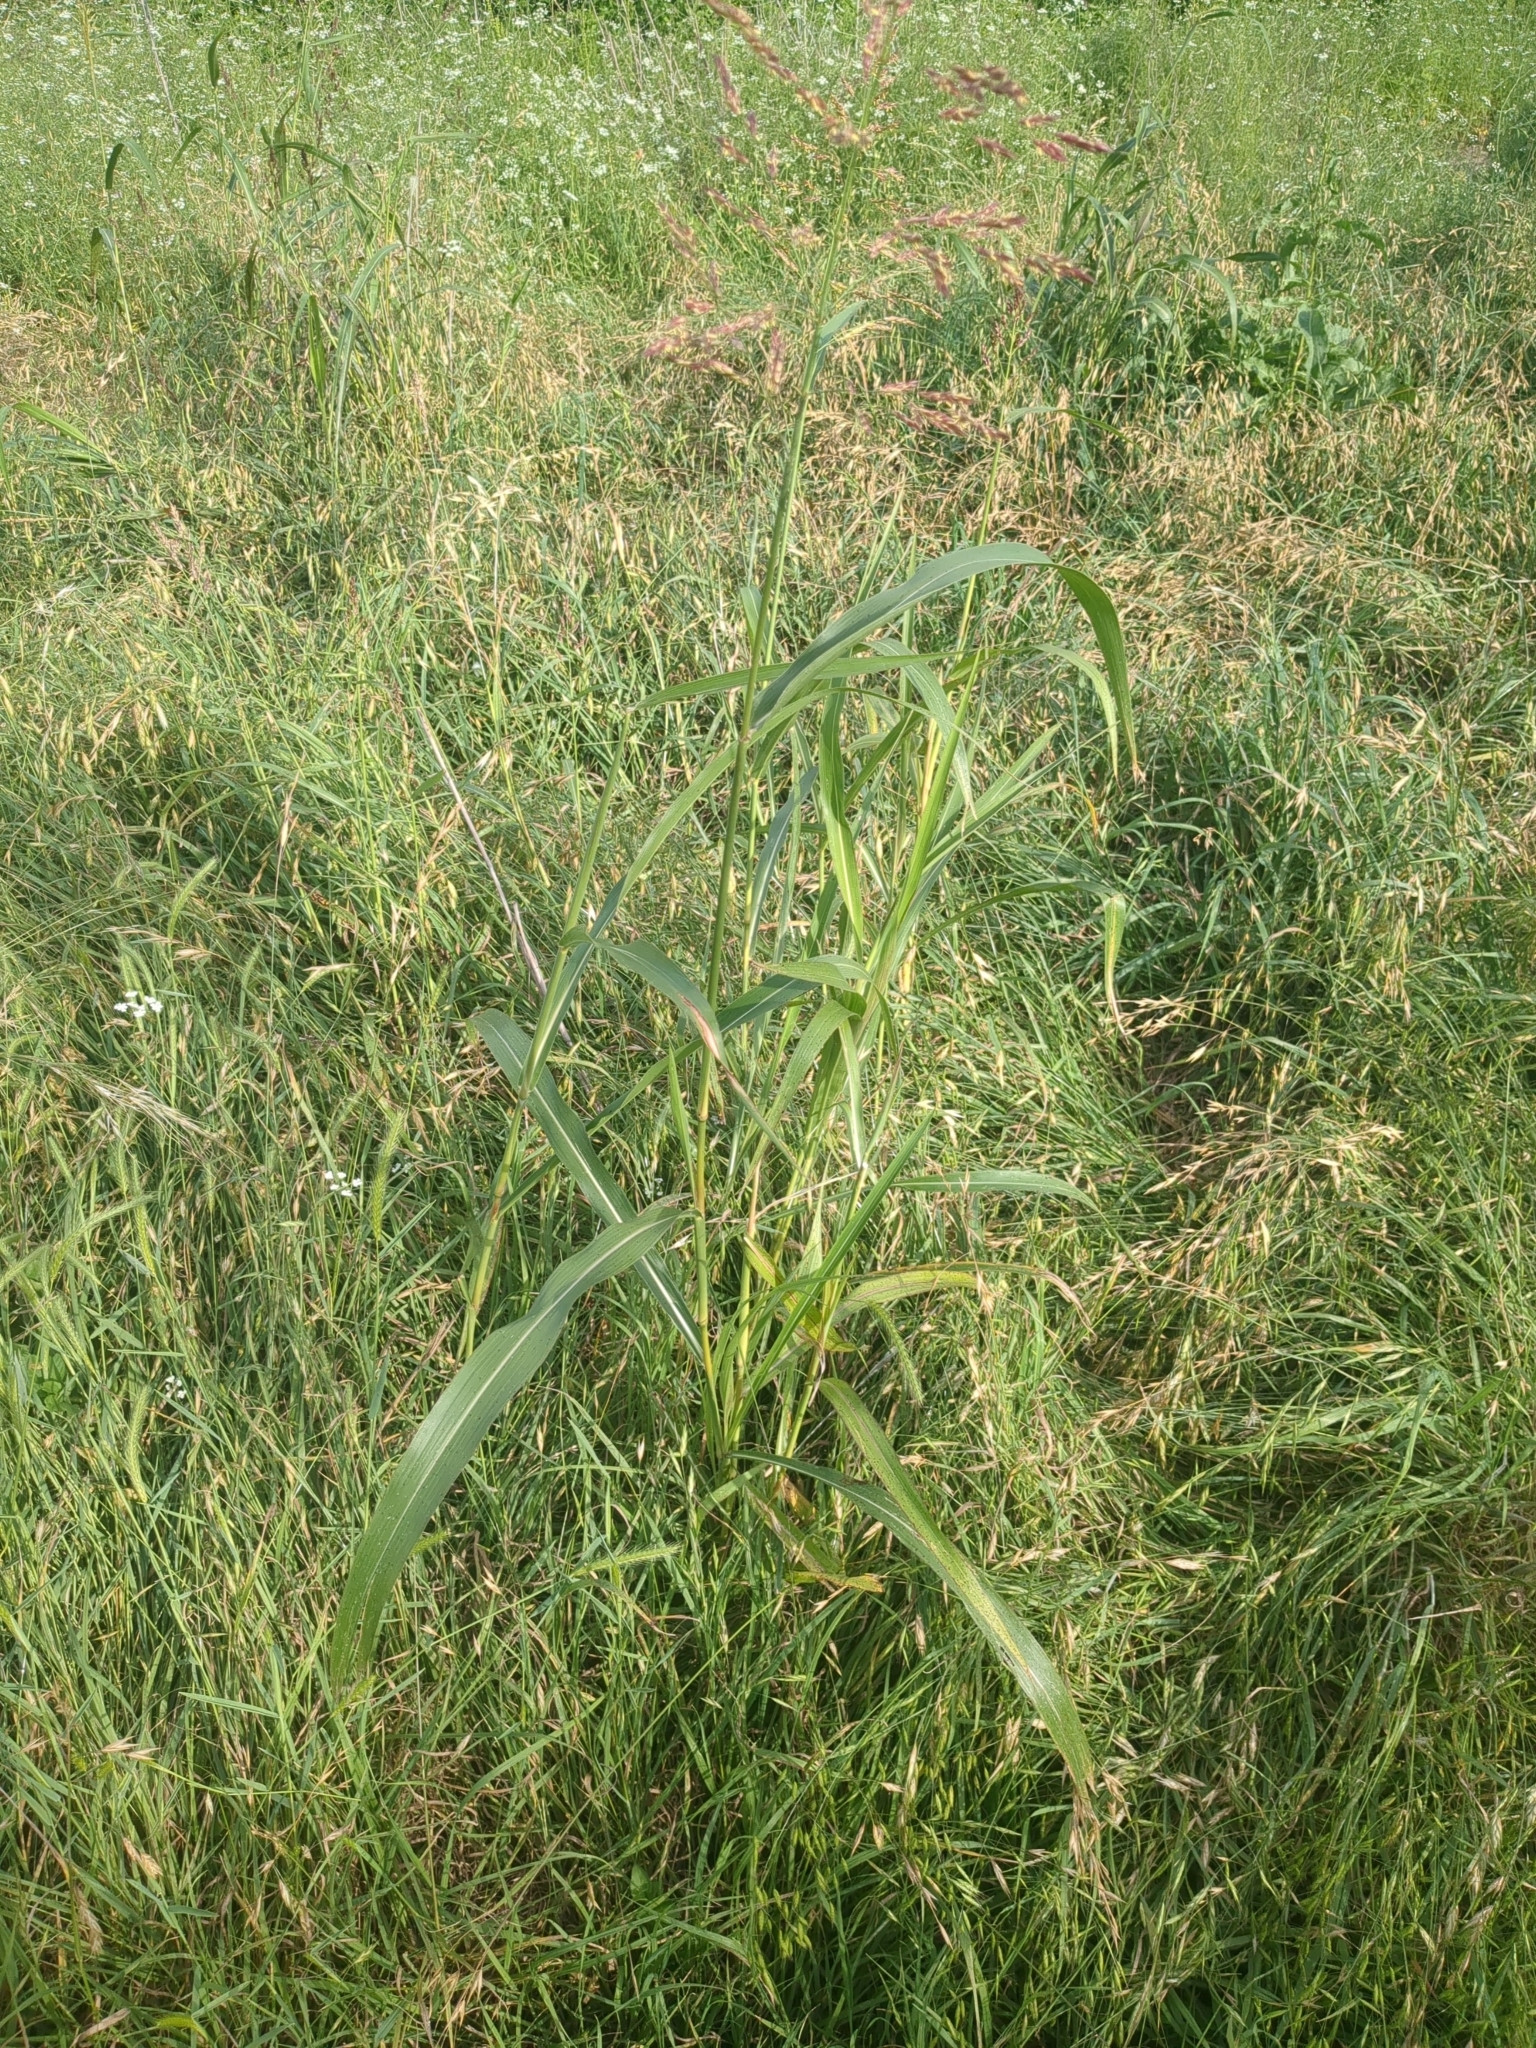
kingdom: Plantae
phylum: Tracheophyta
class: Liliopsida
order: Poales
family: Poaceae
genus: Sorghum
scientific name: Sorghum halepense
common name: Johnson-grass
